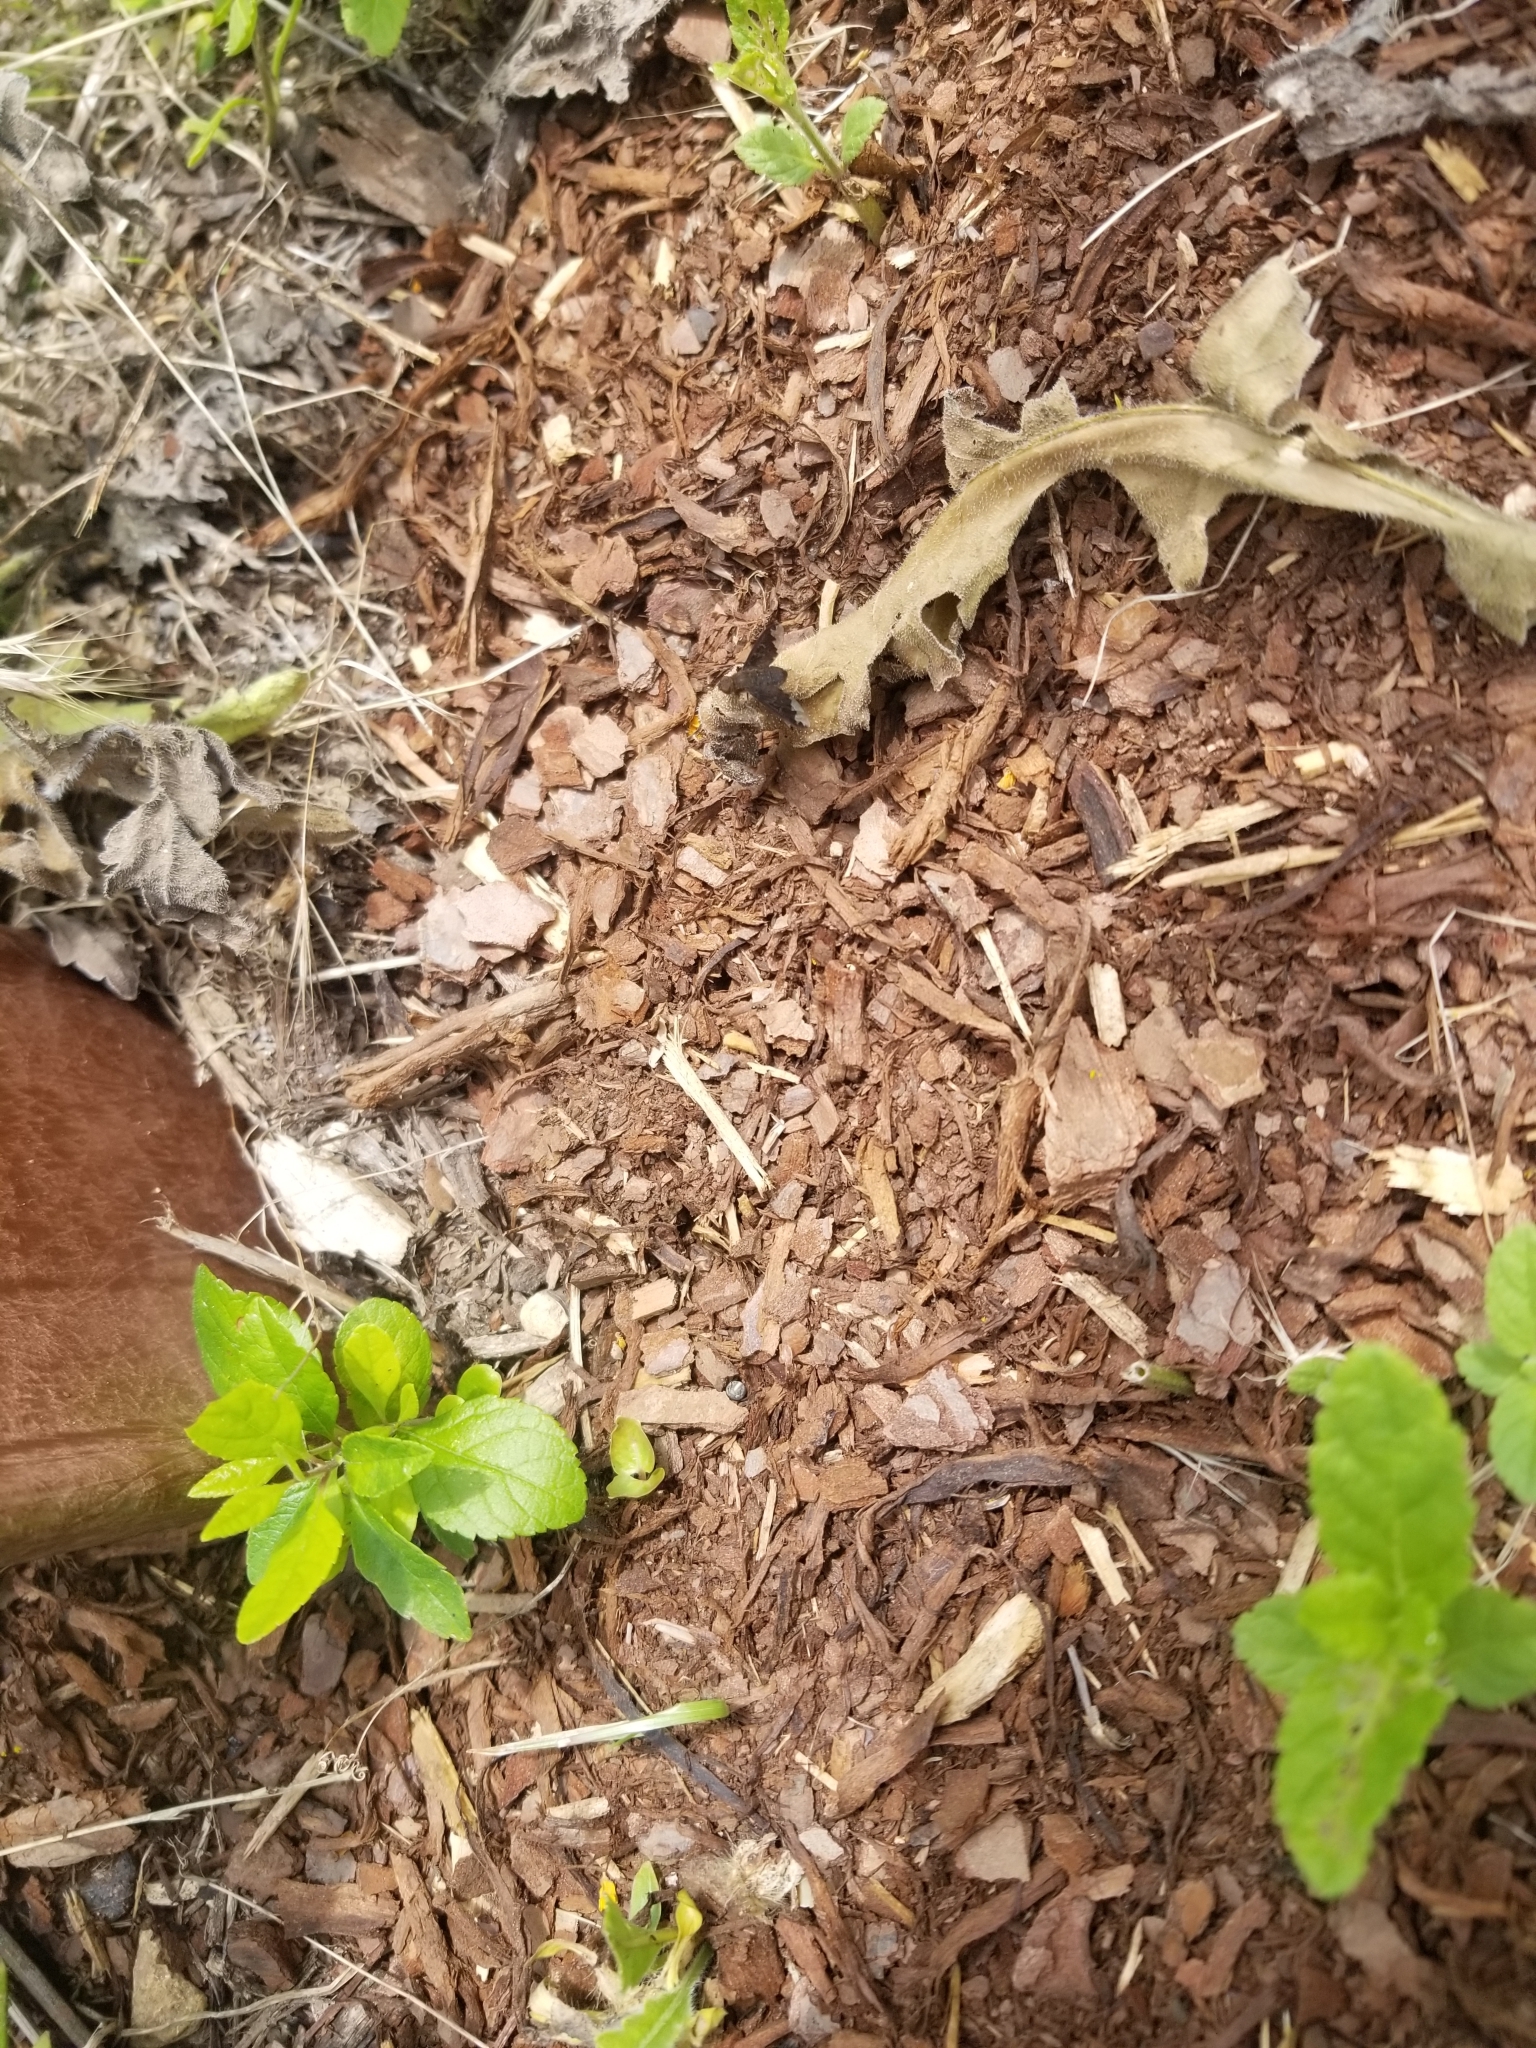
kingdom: Animalia
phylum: Arthropoda
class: Insecta
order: Diptera
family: Bombyliidae
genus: Hemipenthes
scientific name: Hemipenthes sinuosus
